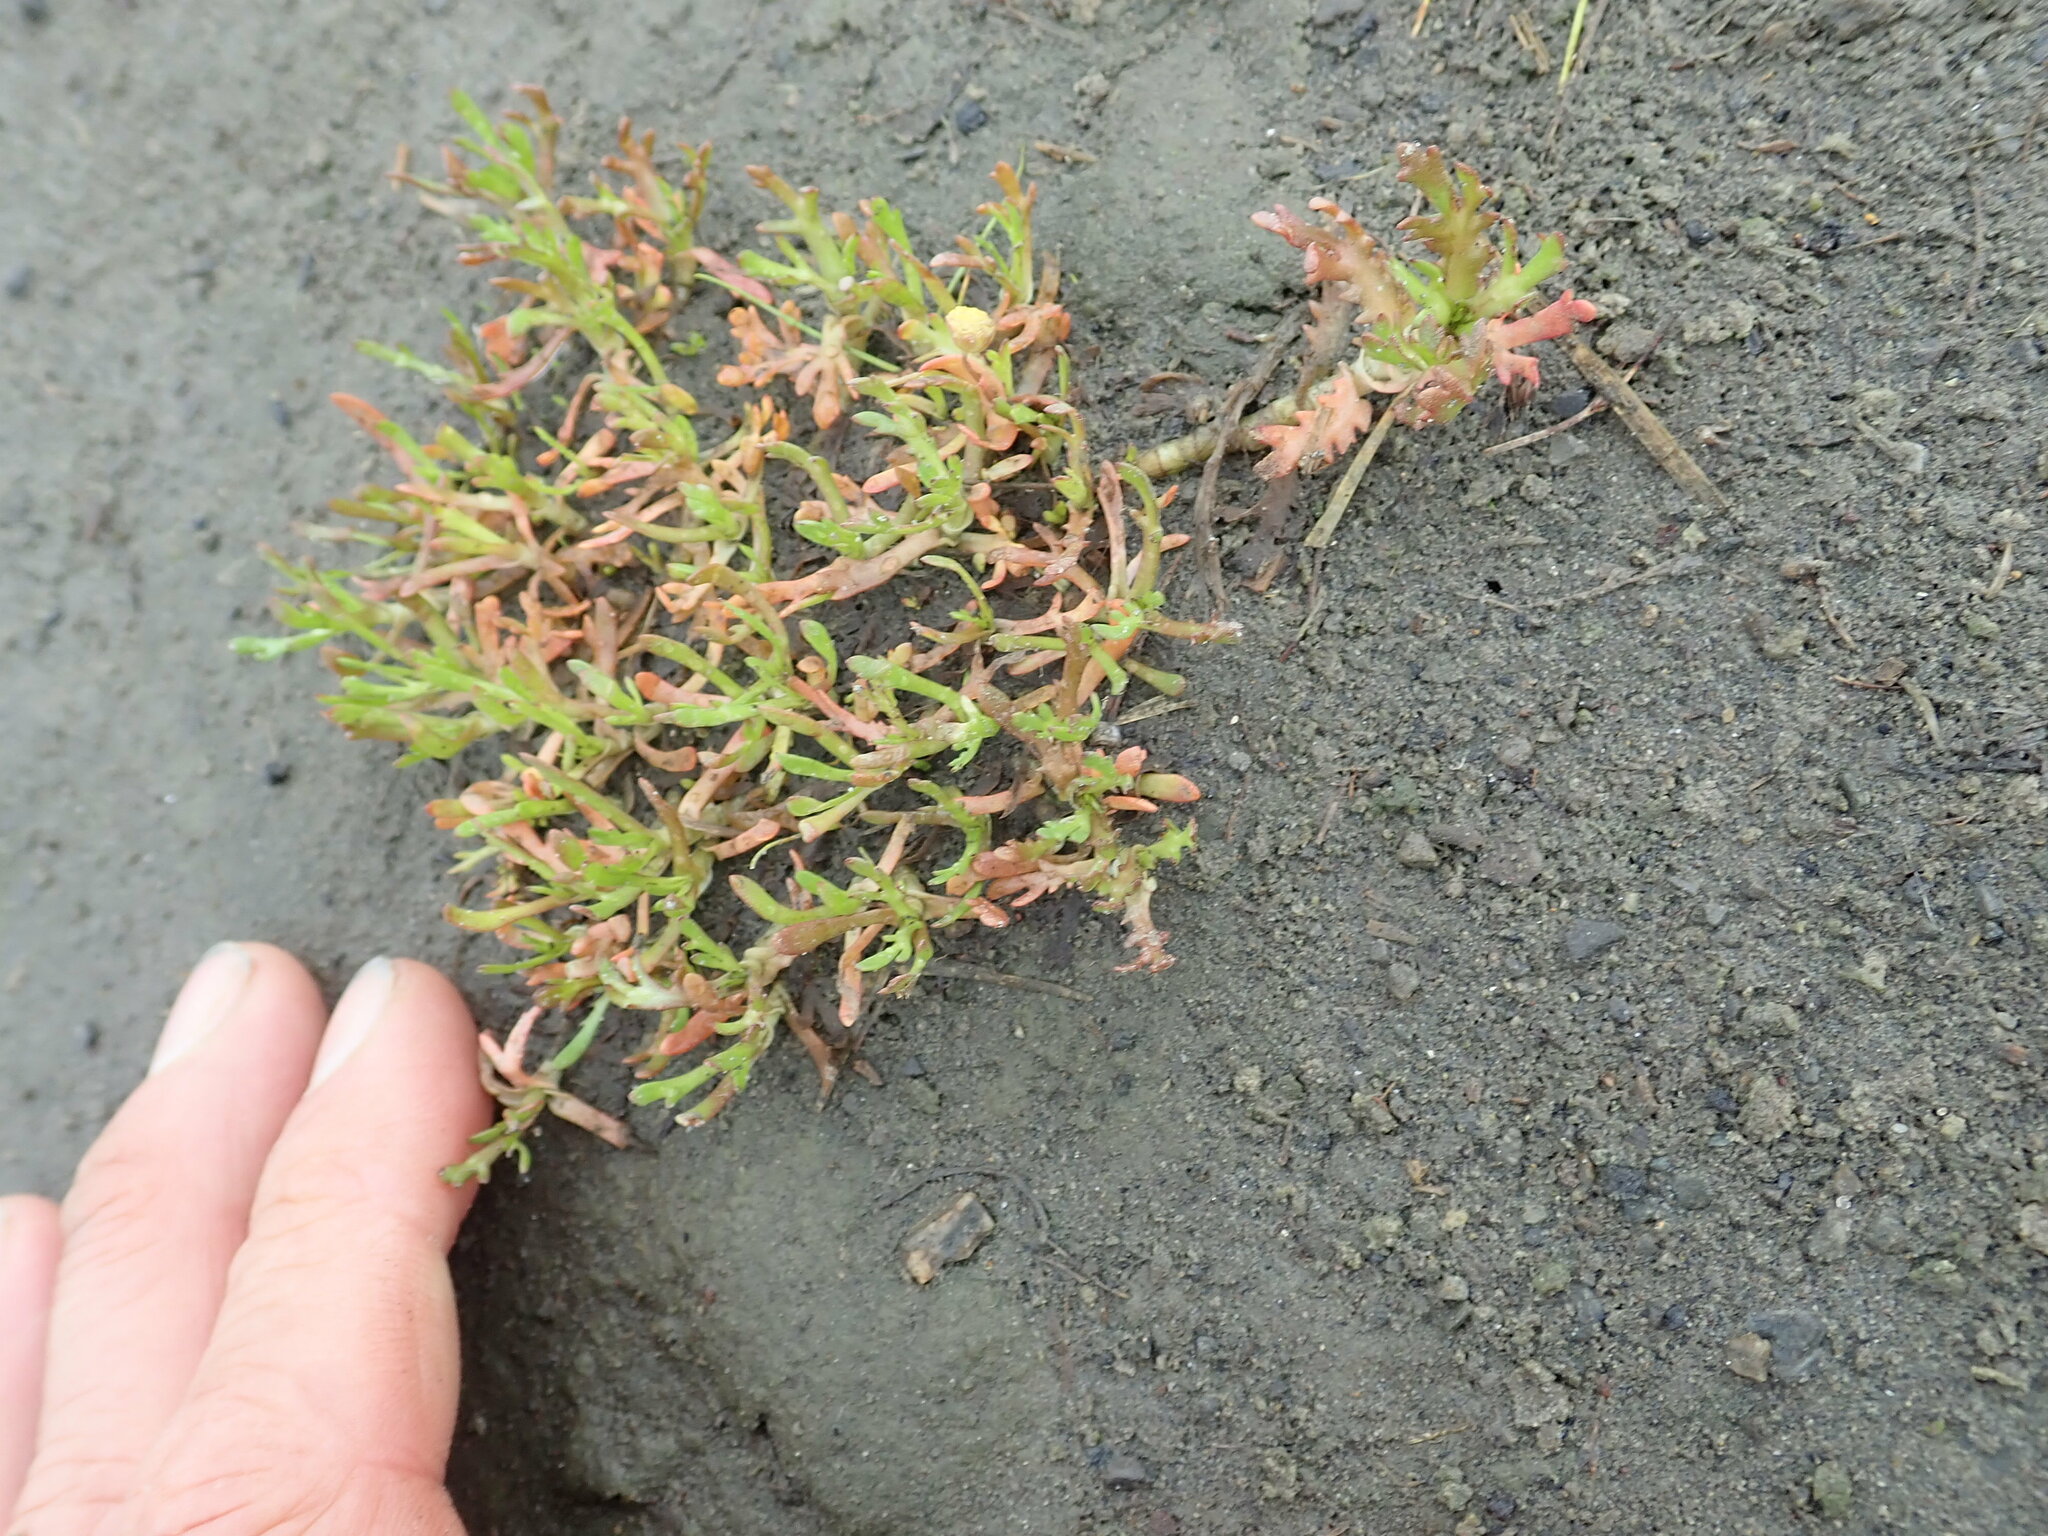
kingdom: Plantae
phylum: Tracheophyta
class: Magnoliopsida
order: Asterales
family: Asteraceae
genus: Cotula
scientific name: Cotula coronopifolia
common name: Buttonweed
